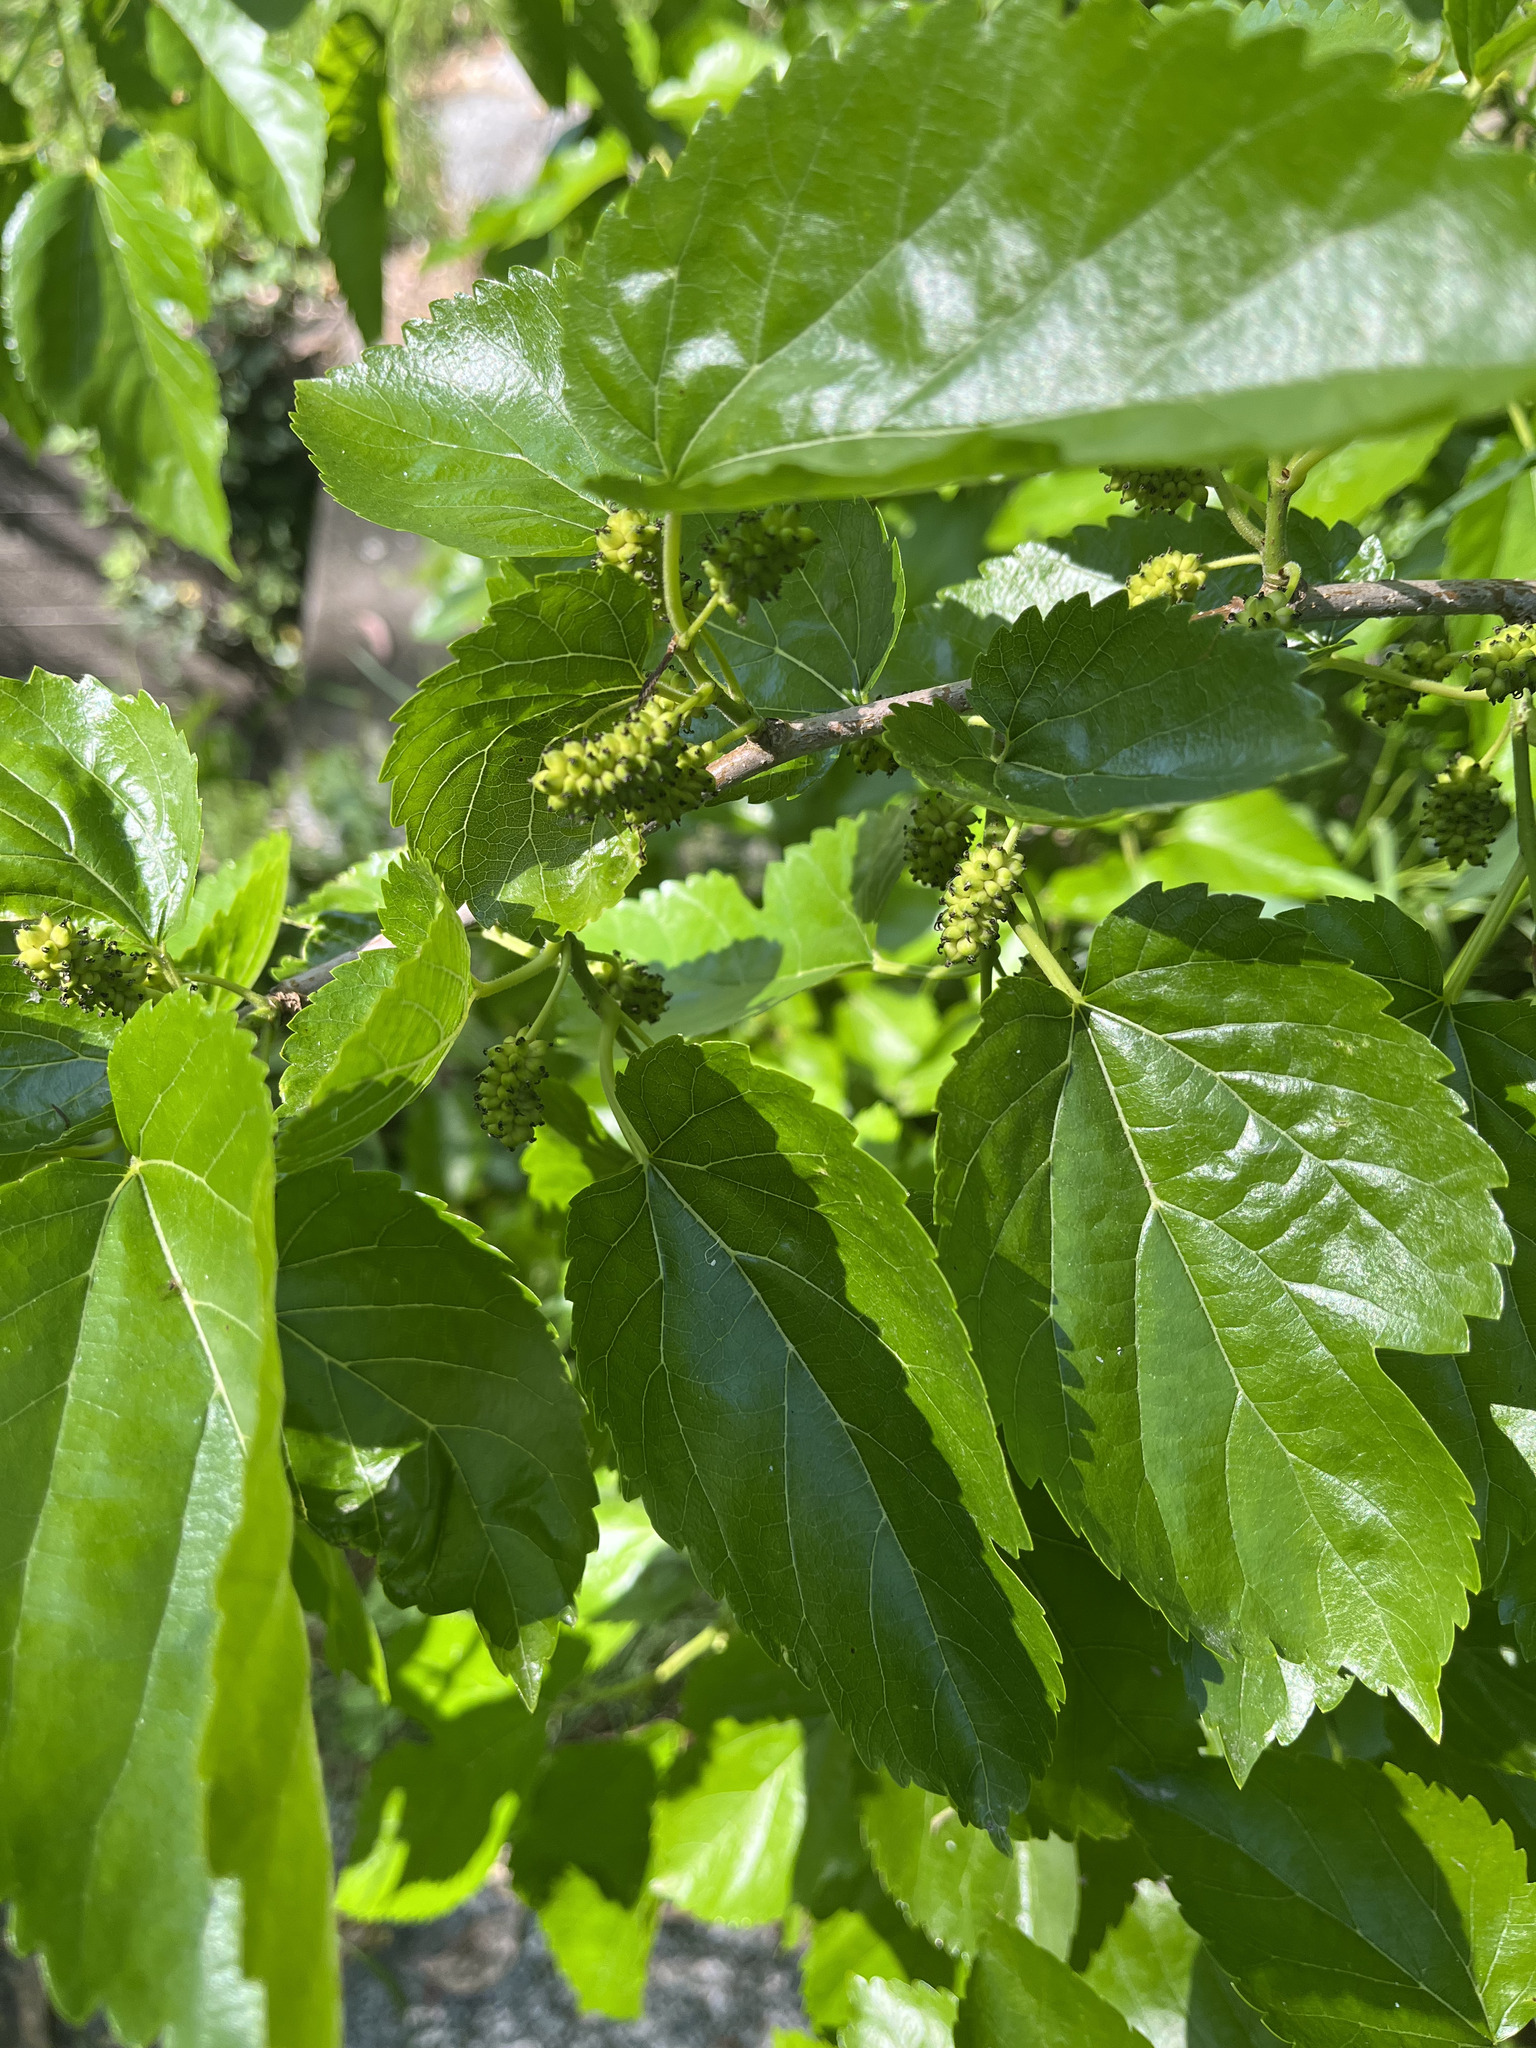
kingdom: Plantae
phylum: Tracheophyta
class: Magnoliopsida
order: Rosales
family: Moraceae
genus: Morus
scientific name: Morus alba
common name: White mulberry
